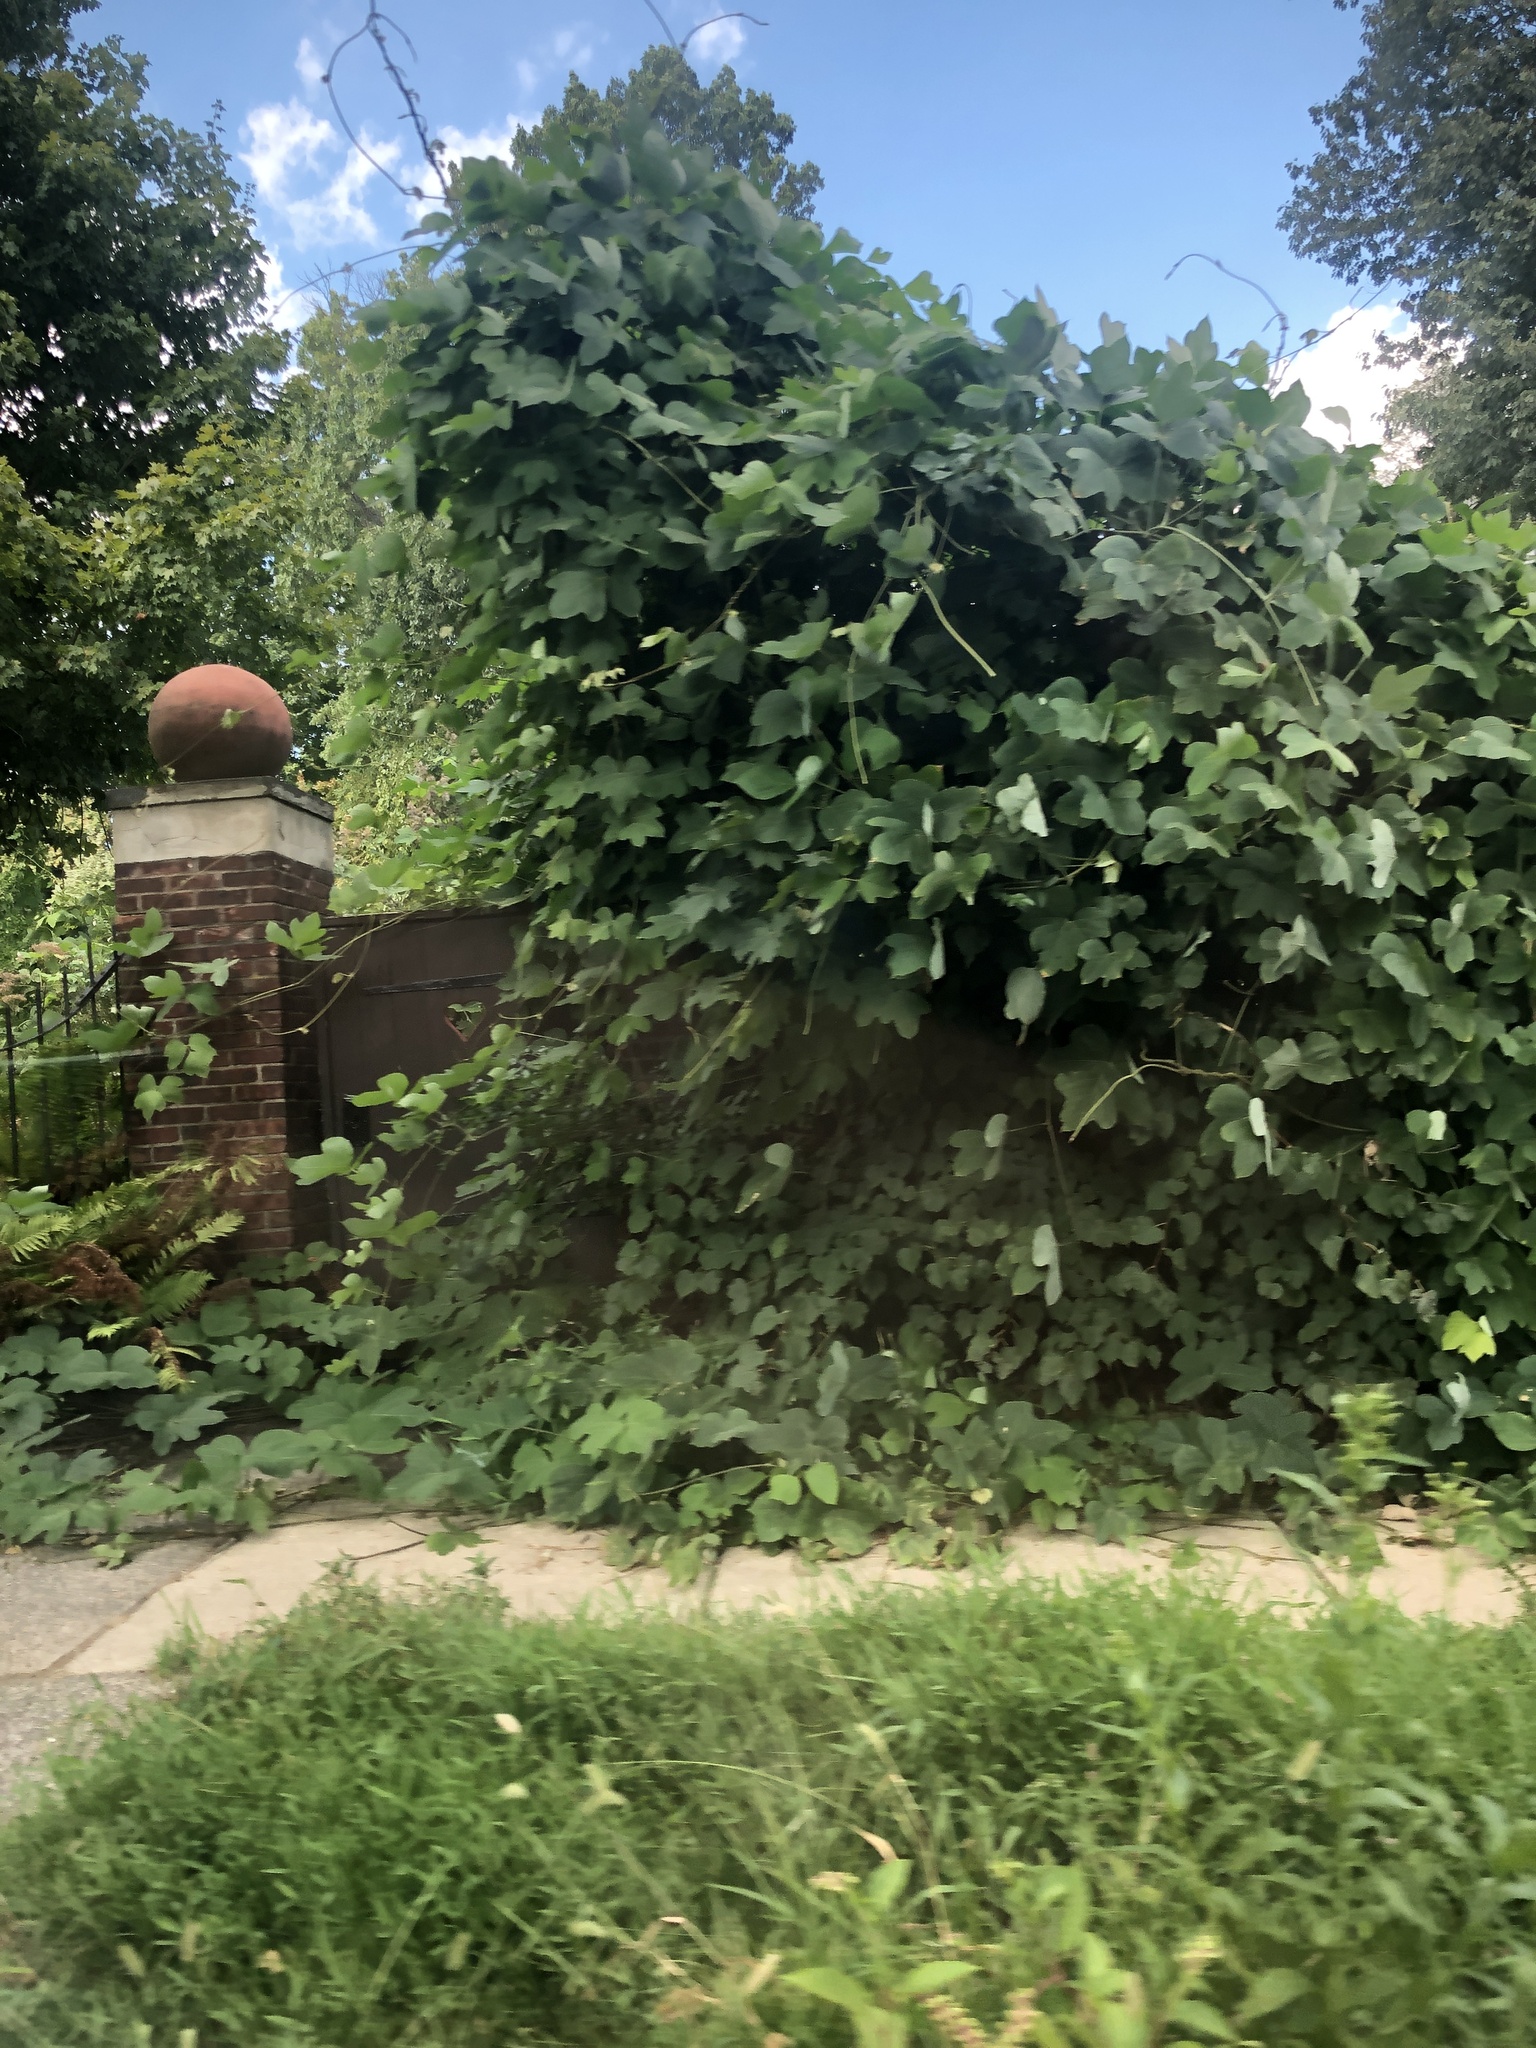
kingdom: Plantae
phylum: Tracheophyta
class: Magnoliopsida
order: Fabales
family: Fabaceae
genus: Pueraria
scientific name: Pueraria montana
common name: Kudzu
